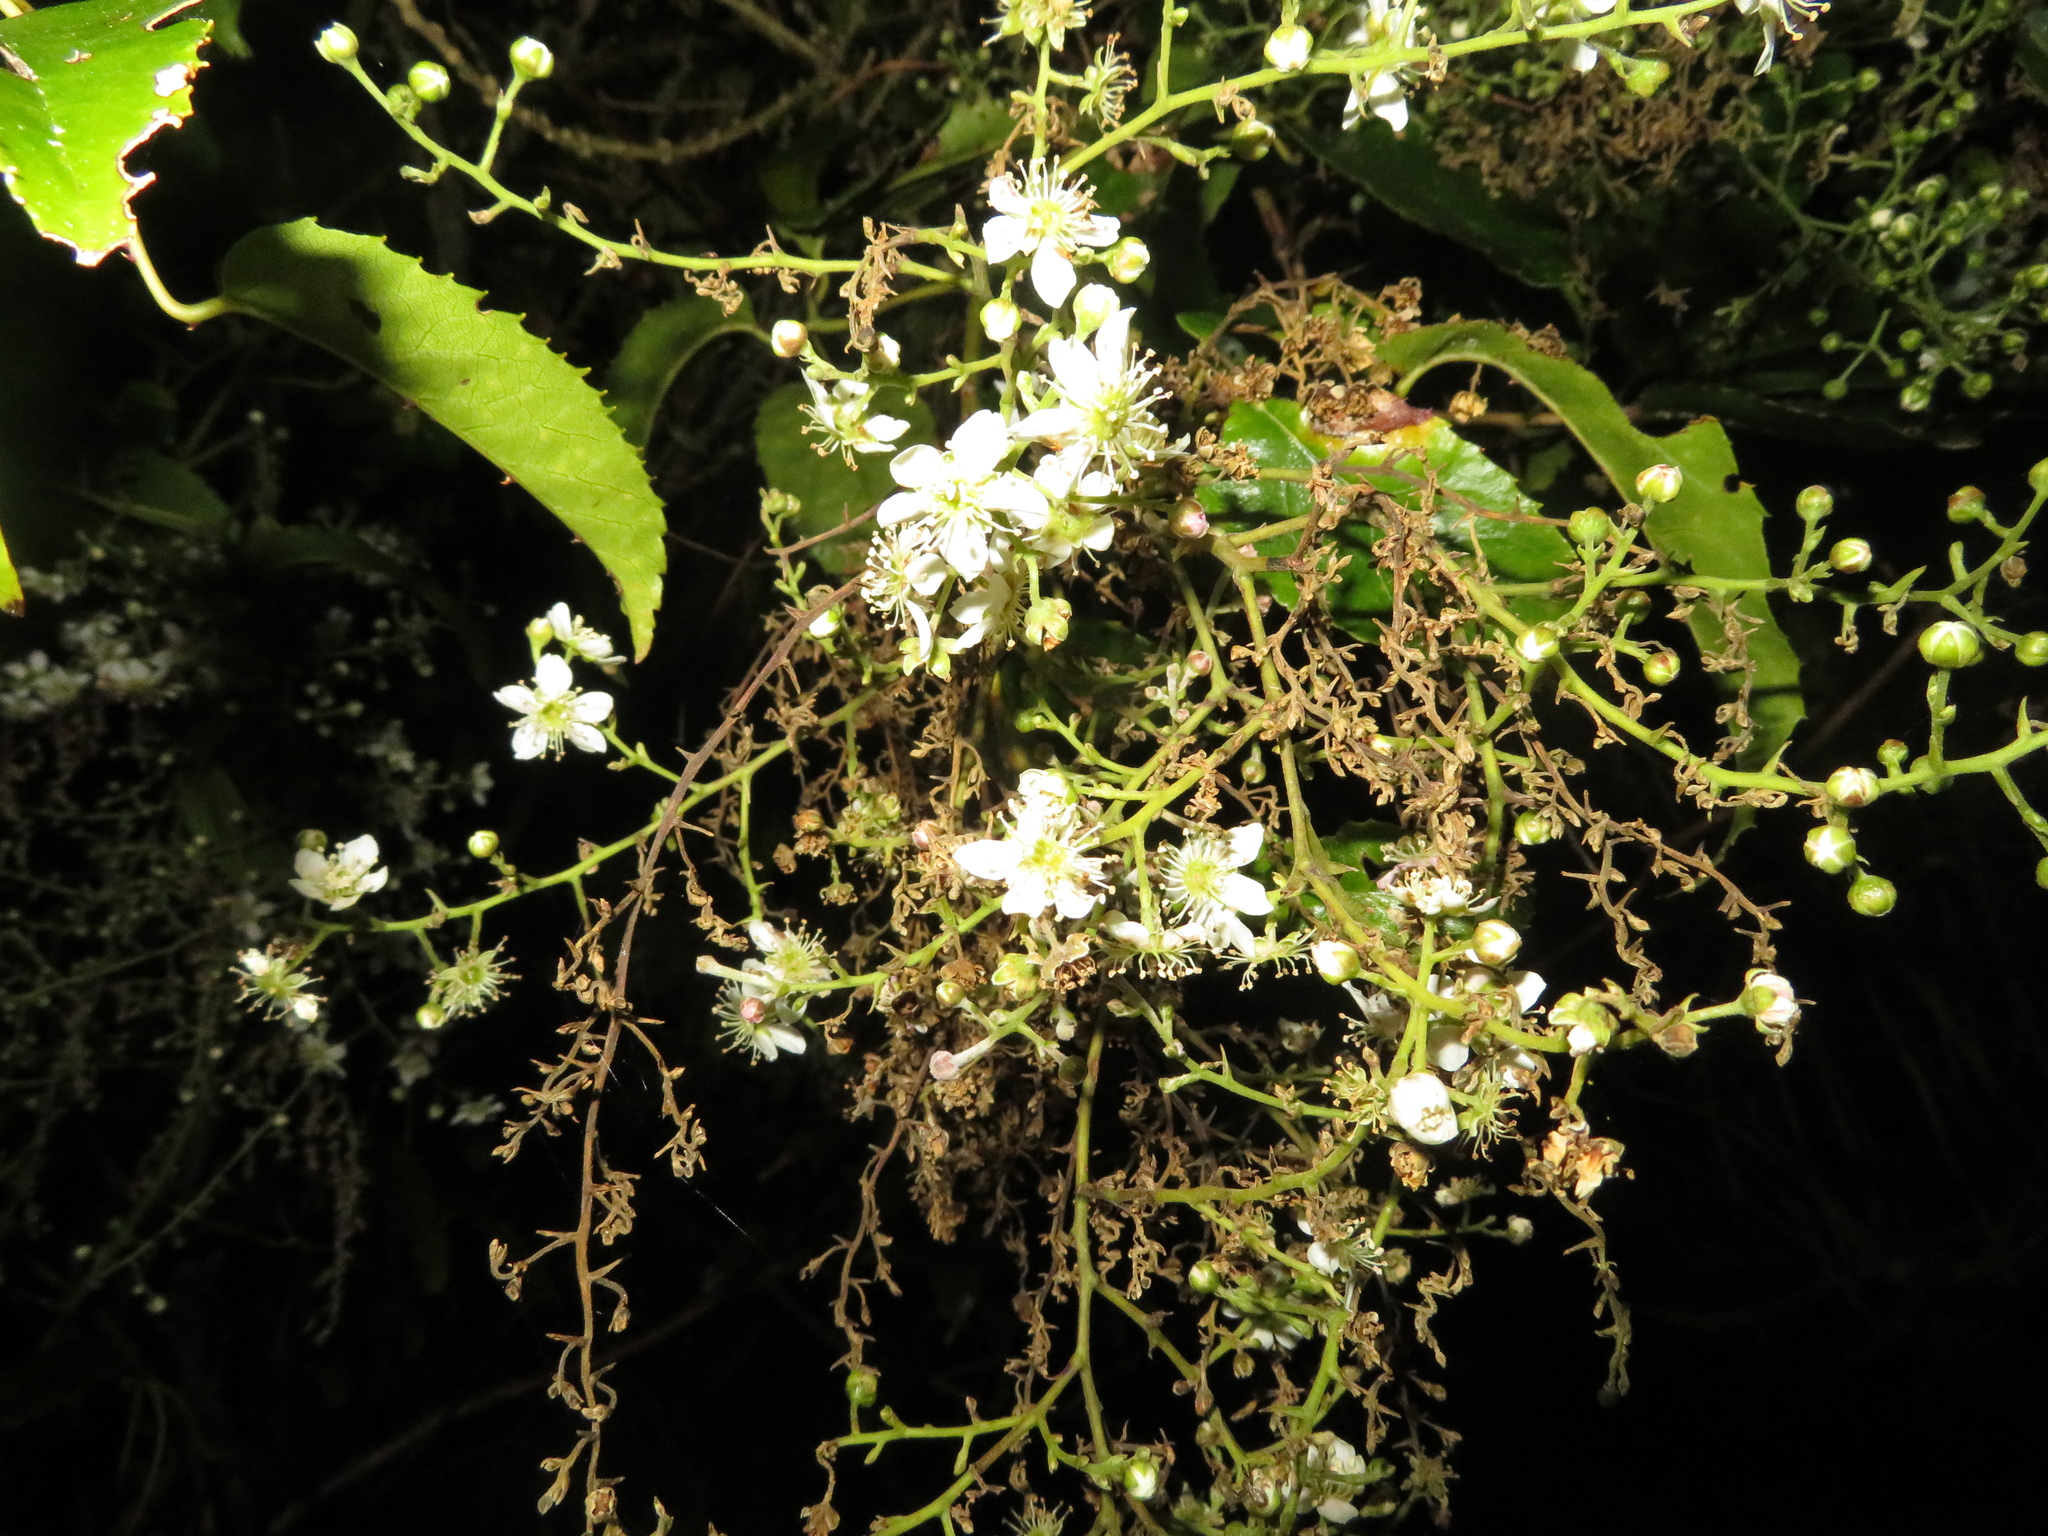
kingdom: Plantae
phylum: Tracheophyta
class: Magnoliopsida
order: Rosales
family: Rosaceae
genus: Rubus
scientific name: Rubus cissoides
